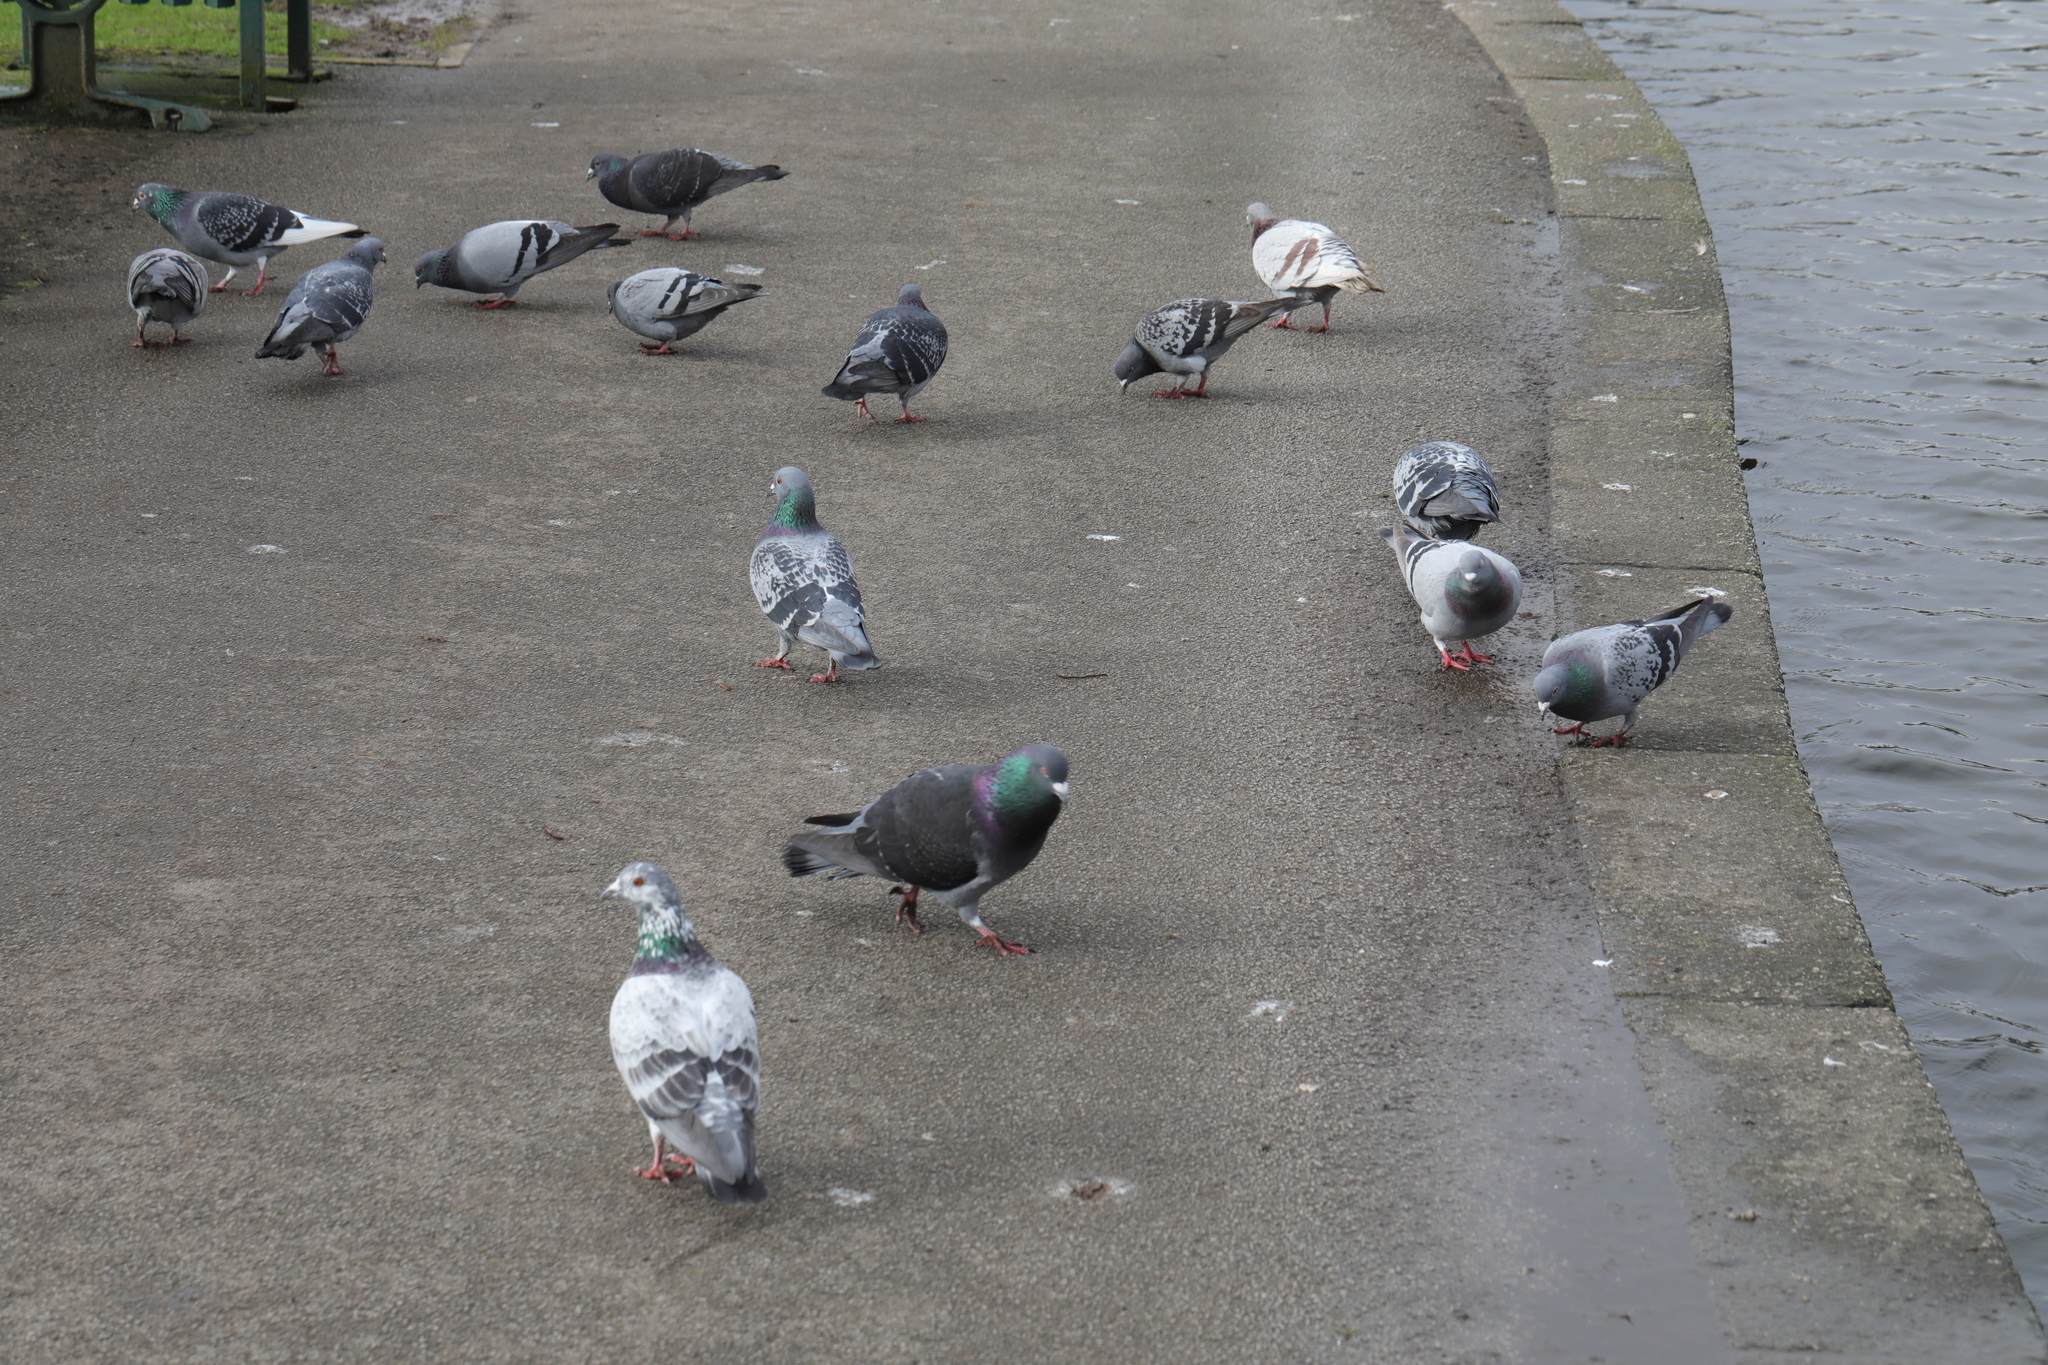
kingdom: Animalia
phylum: Chordata
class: Aves
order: Columbiformes
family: Columbidae
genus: Columba
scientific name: Columba livia
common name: Rock pigeon
